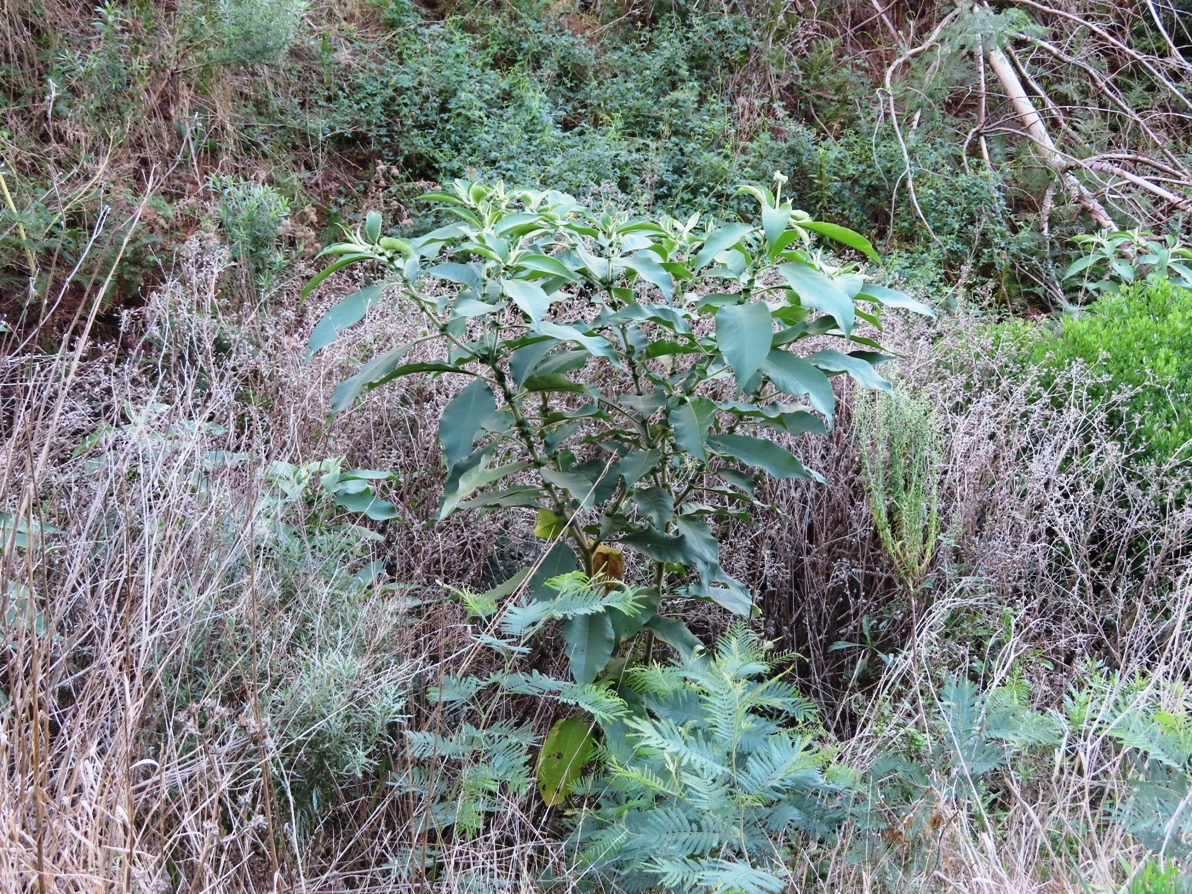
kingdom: Plantae
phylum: Tracheophyta
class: Magnoliopsida
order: Solanales
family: Solanaceae
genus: Solanum
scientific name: Solanum mauritianum
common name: Earleaf nightshade
